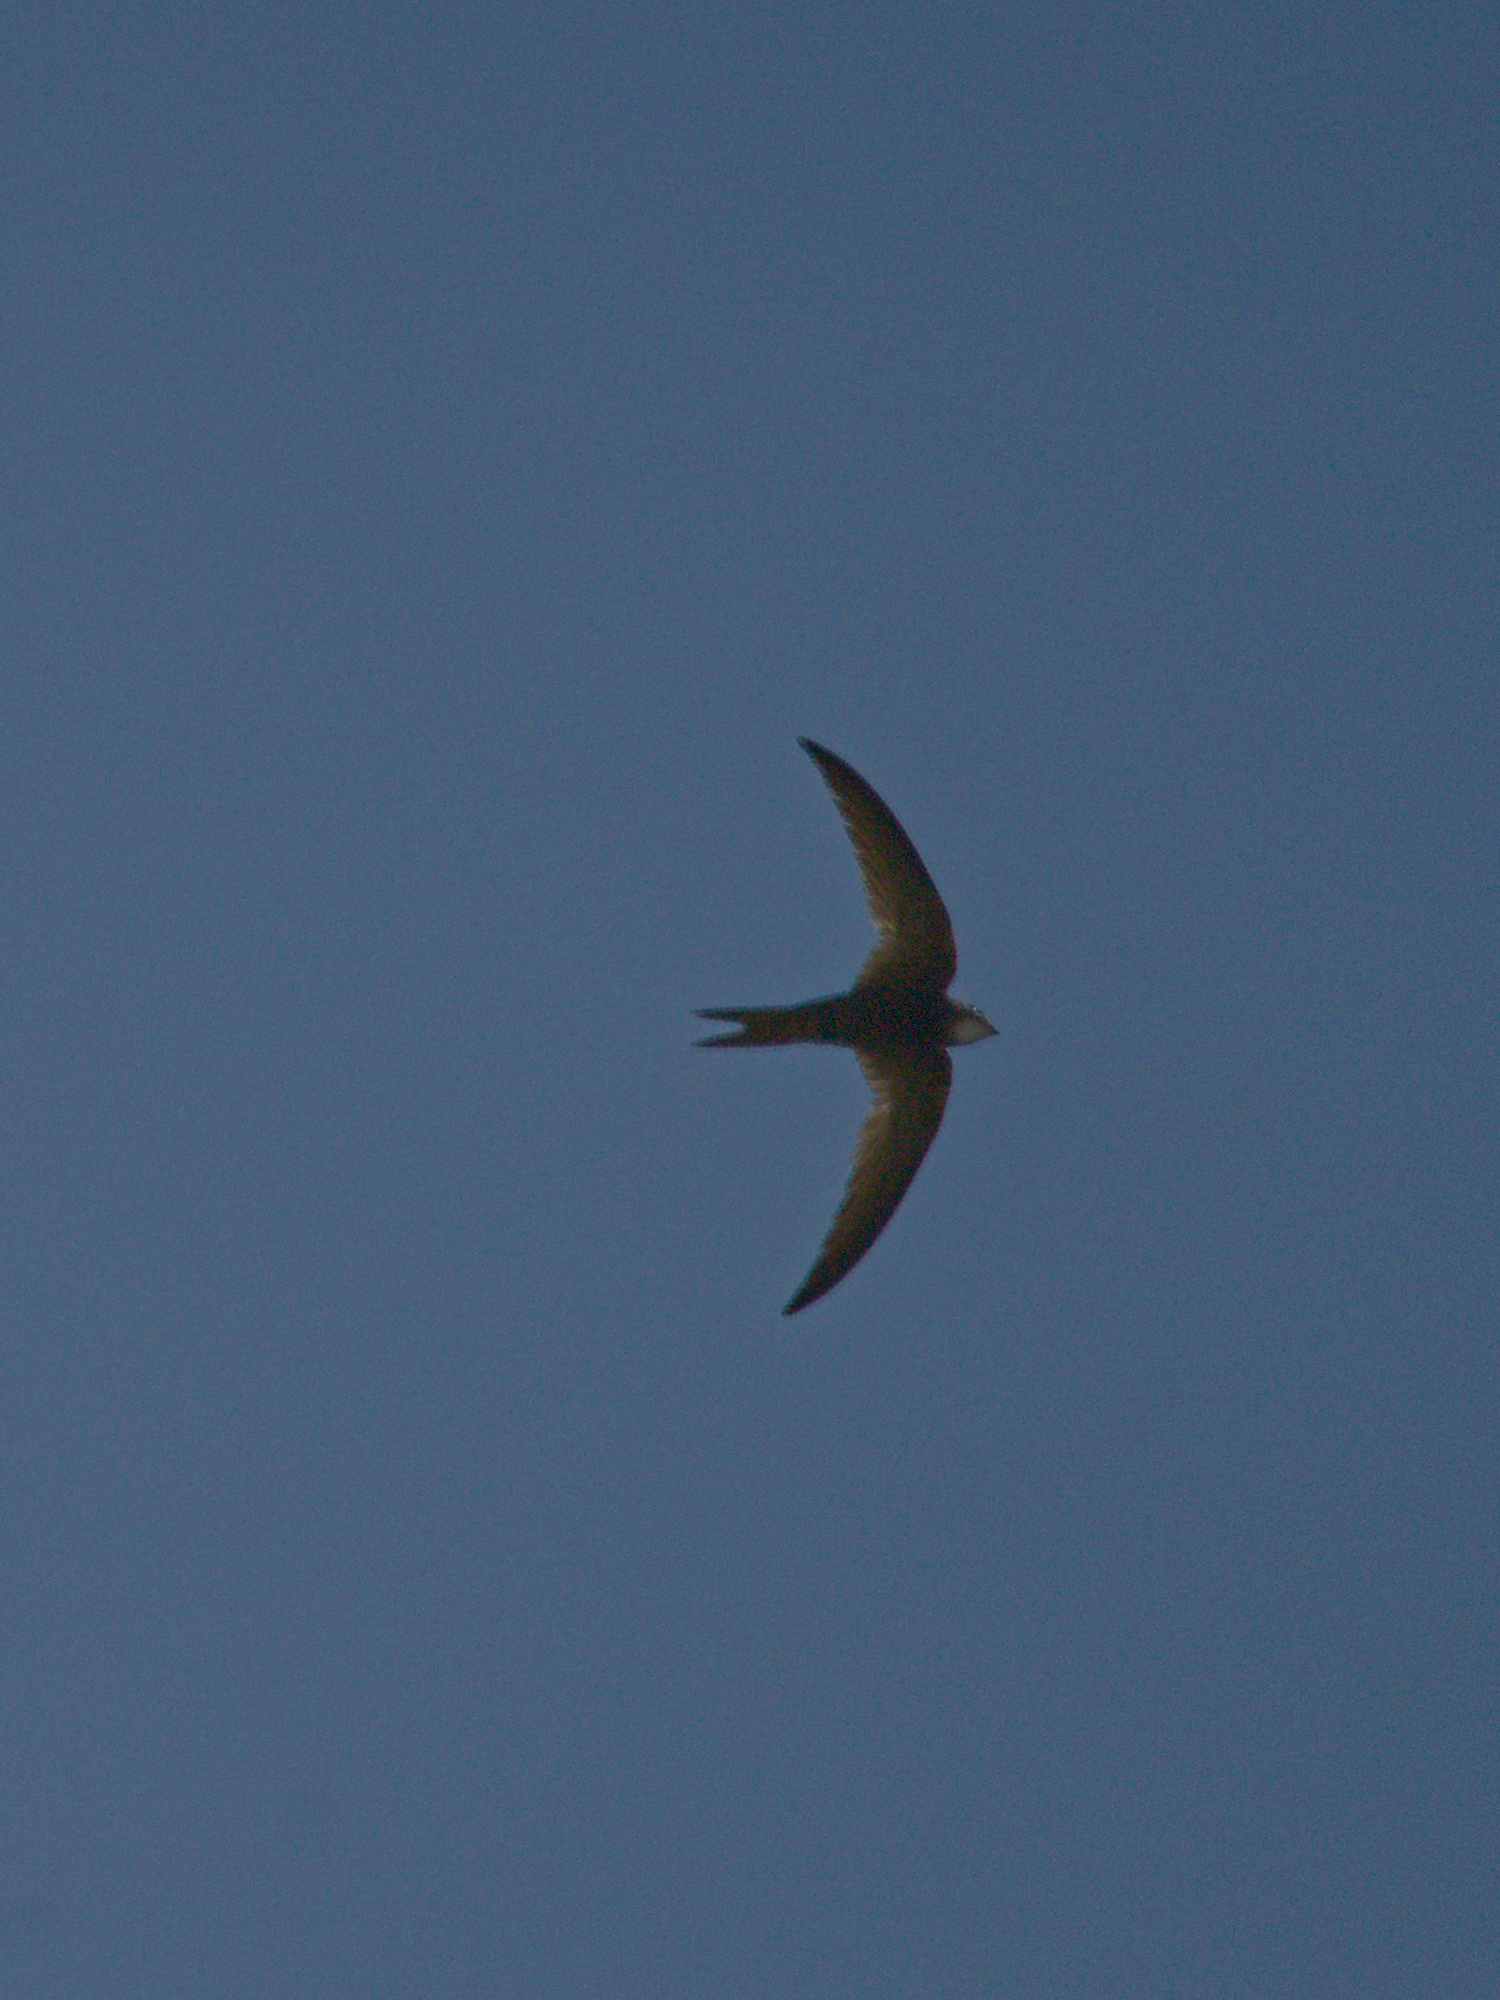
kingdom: Animalia
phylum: Chordata
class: Aves
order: Apodiformes
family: Apodidae
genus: Apus
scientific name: Apus pallidus
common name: Pallid swift
